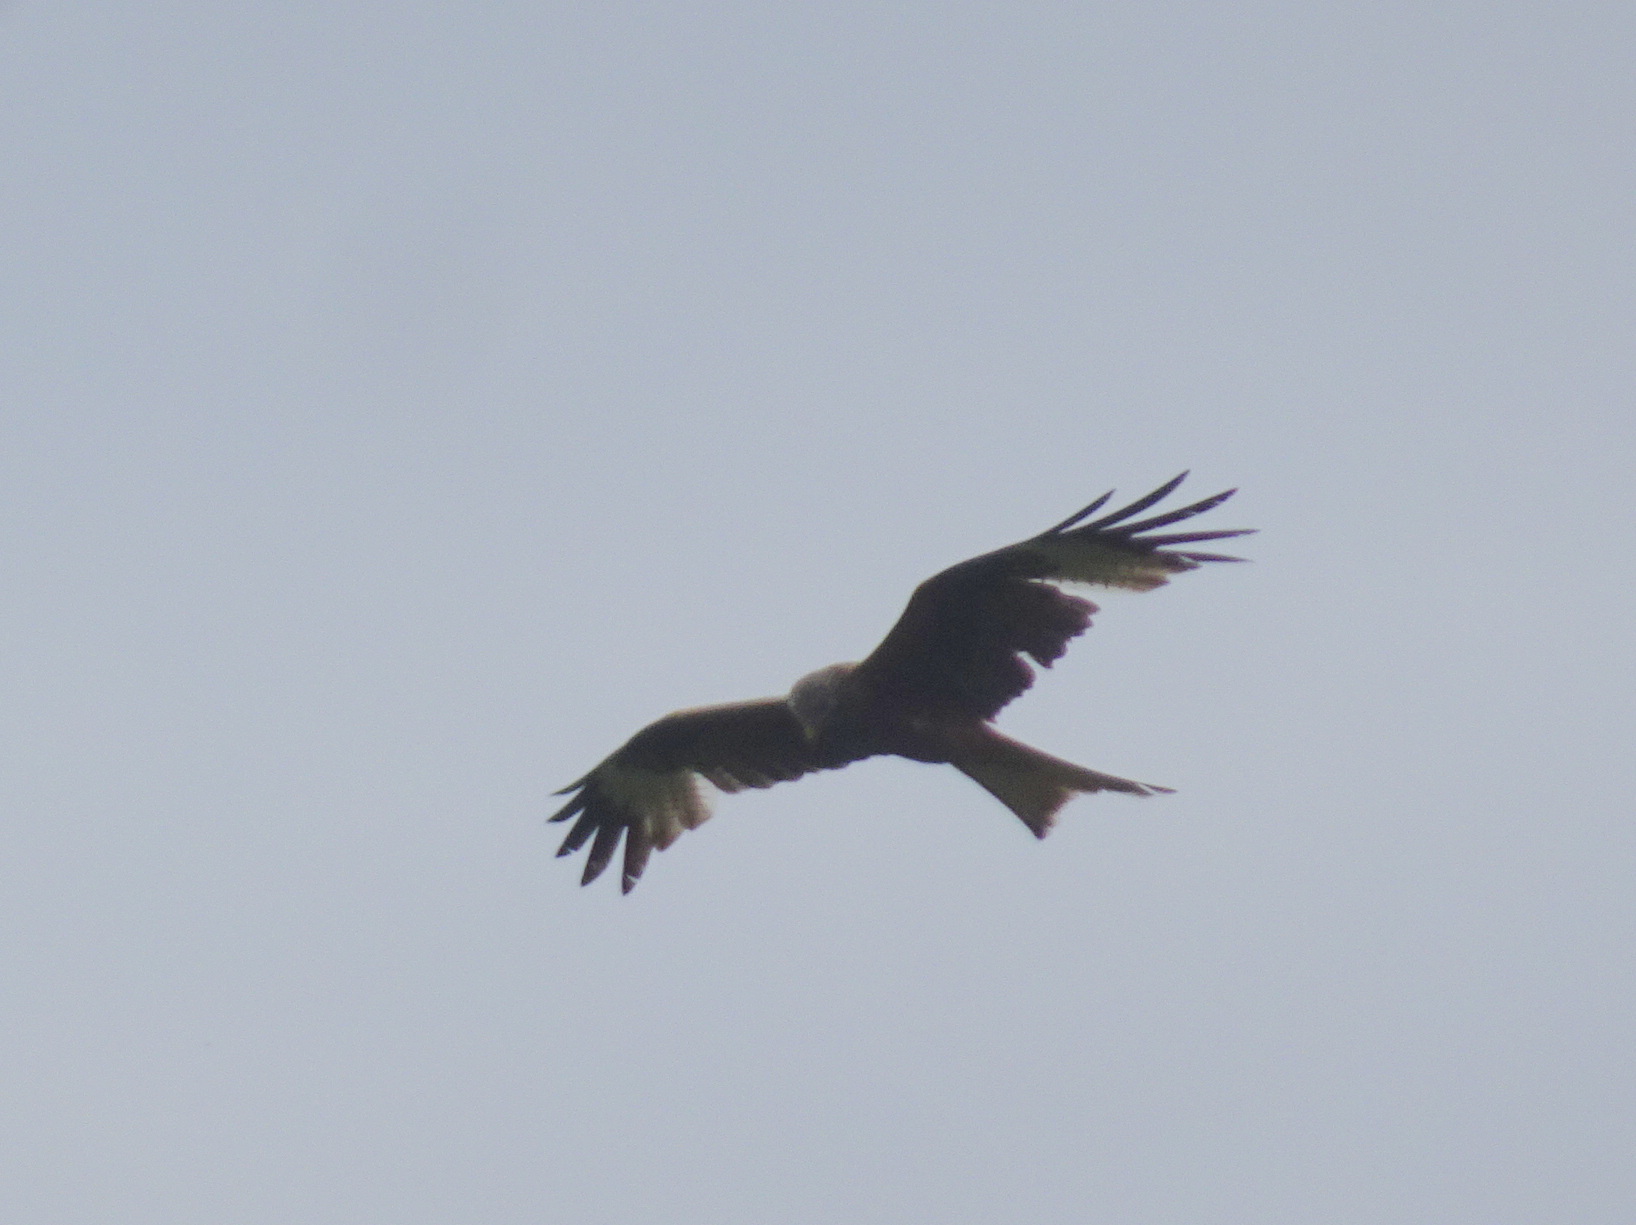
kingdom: Animalia
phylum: Chordata
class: Aves
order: Accipitriformes
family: Accipitridae
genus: Milvus
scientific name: Milvus milvus
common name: Red kite
